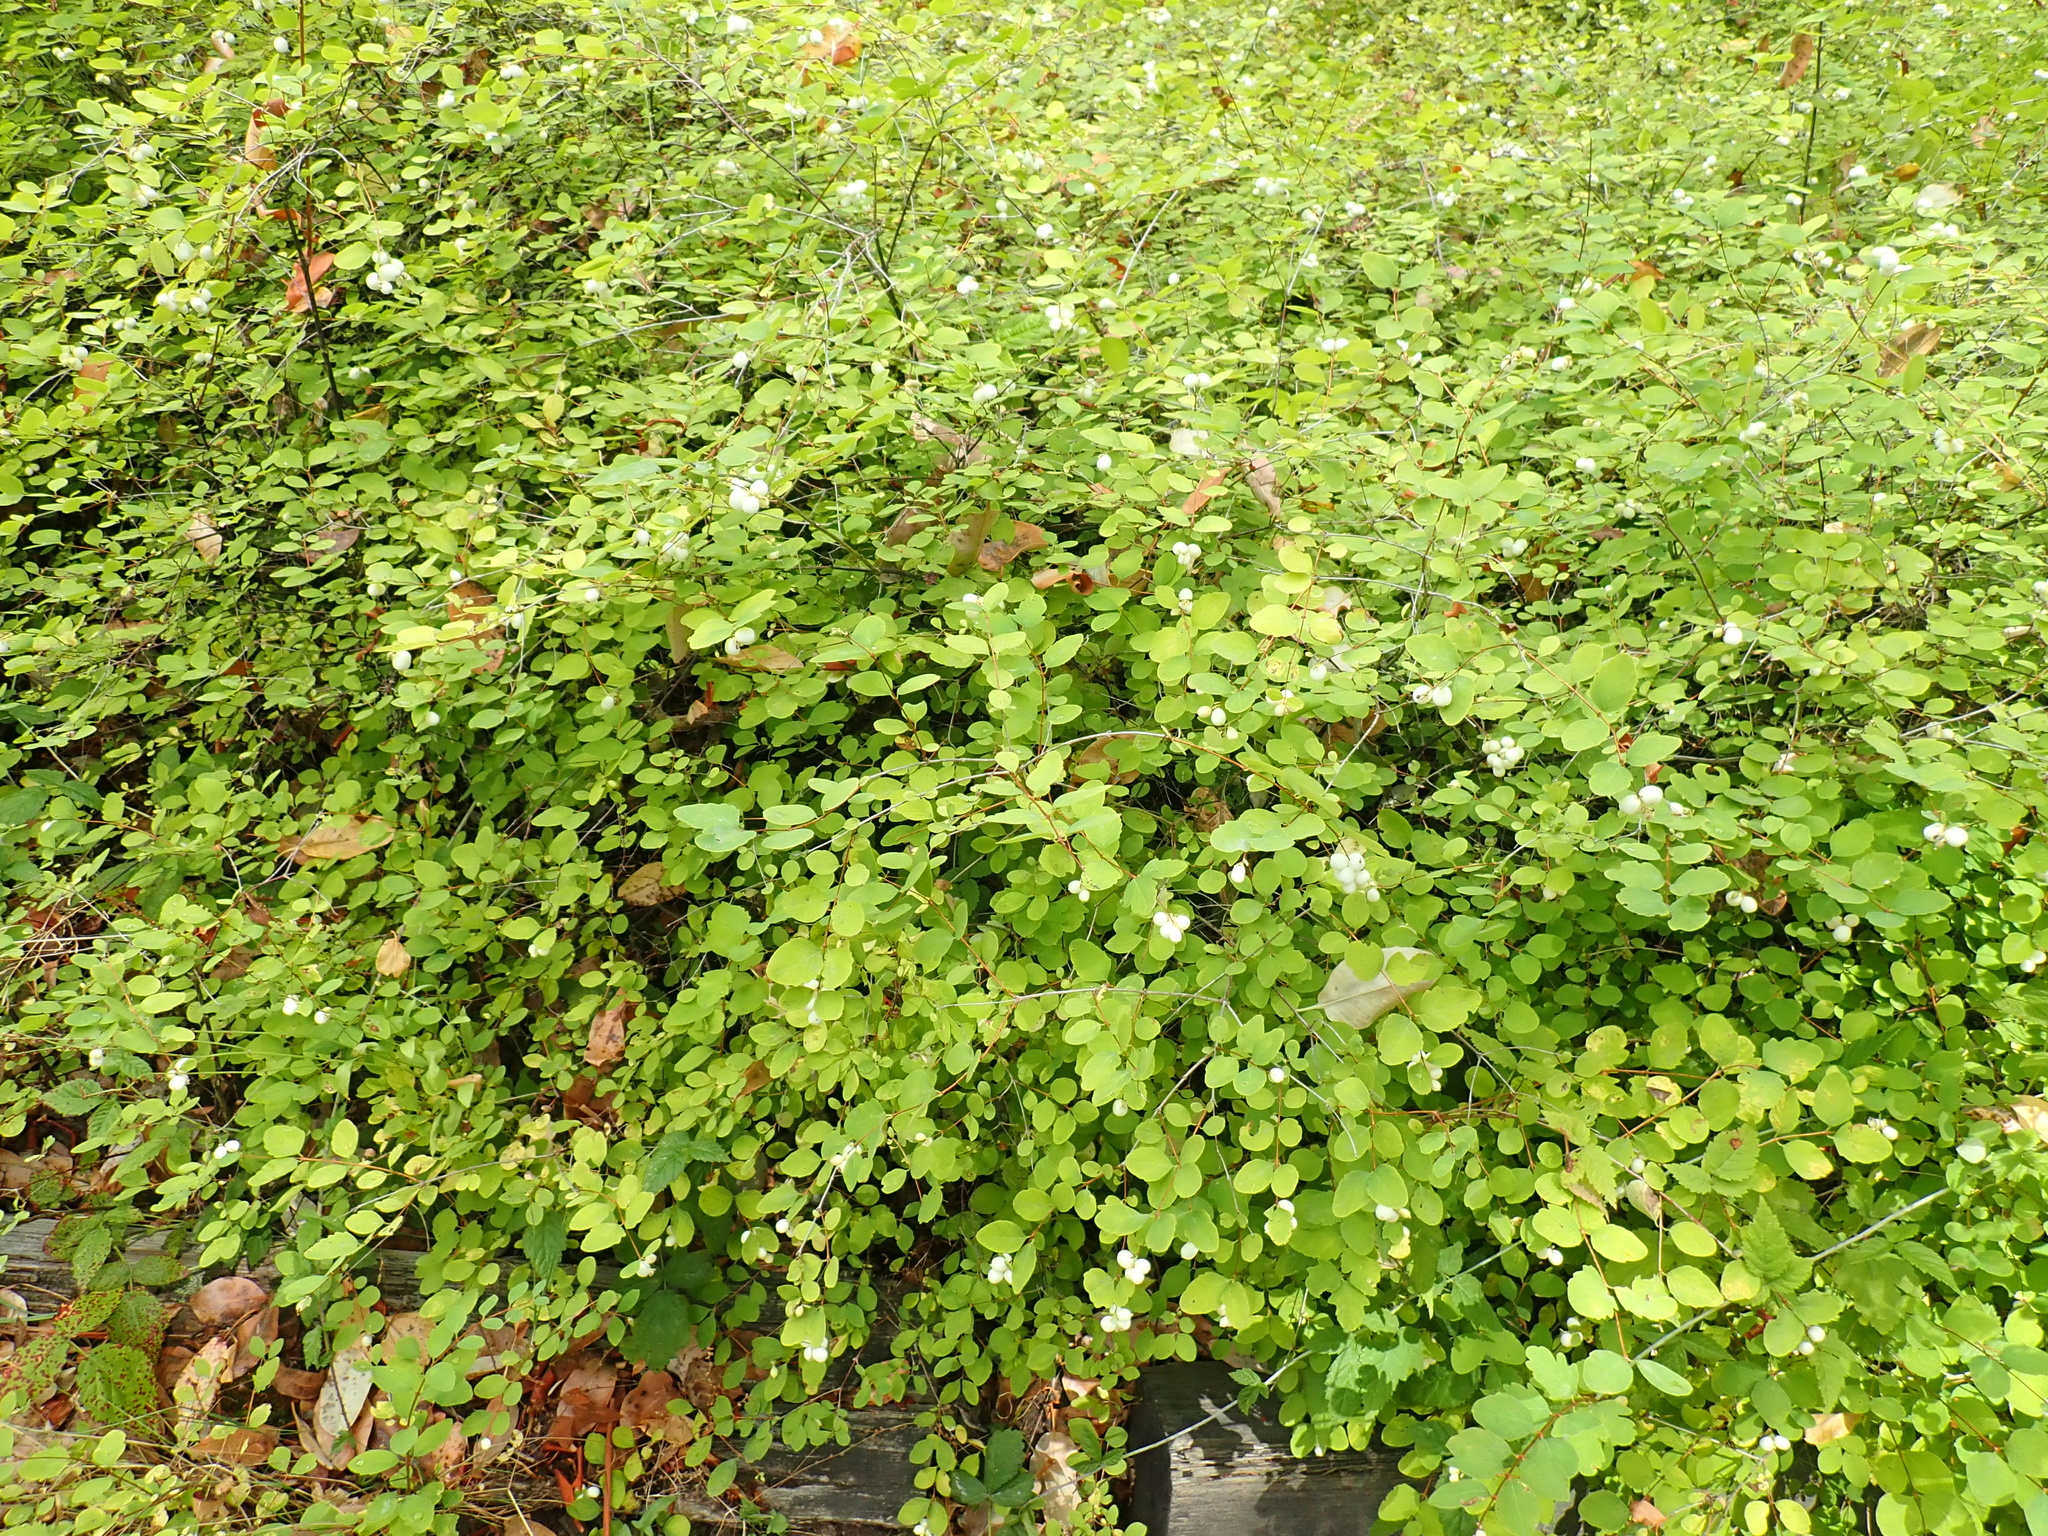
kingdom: Plantae
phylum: Tracheophyta
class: Magnoliopsida
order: Dipsacales
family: Caprifoliaceae
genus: Symphoricarpos
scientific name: Symphoricarpos albus
